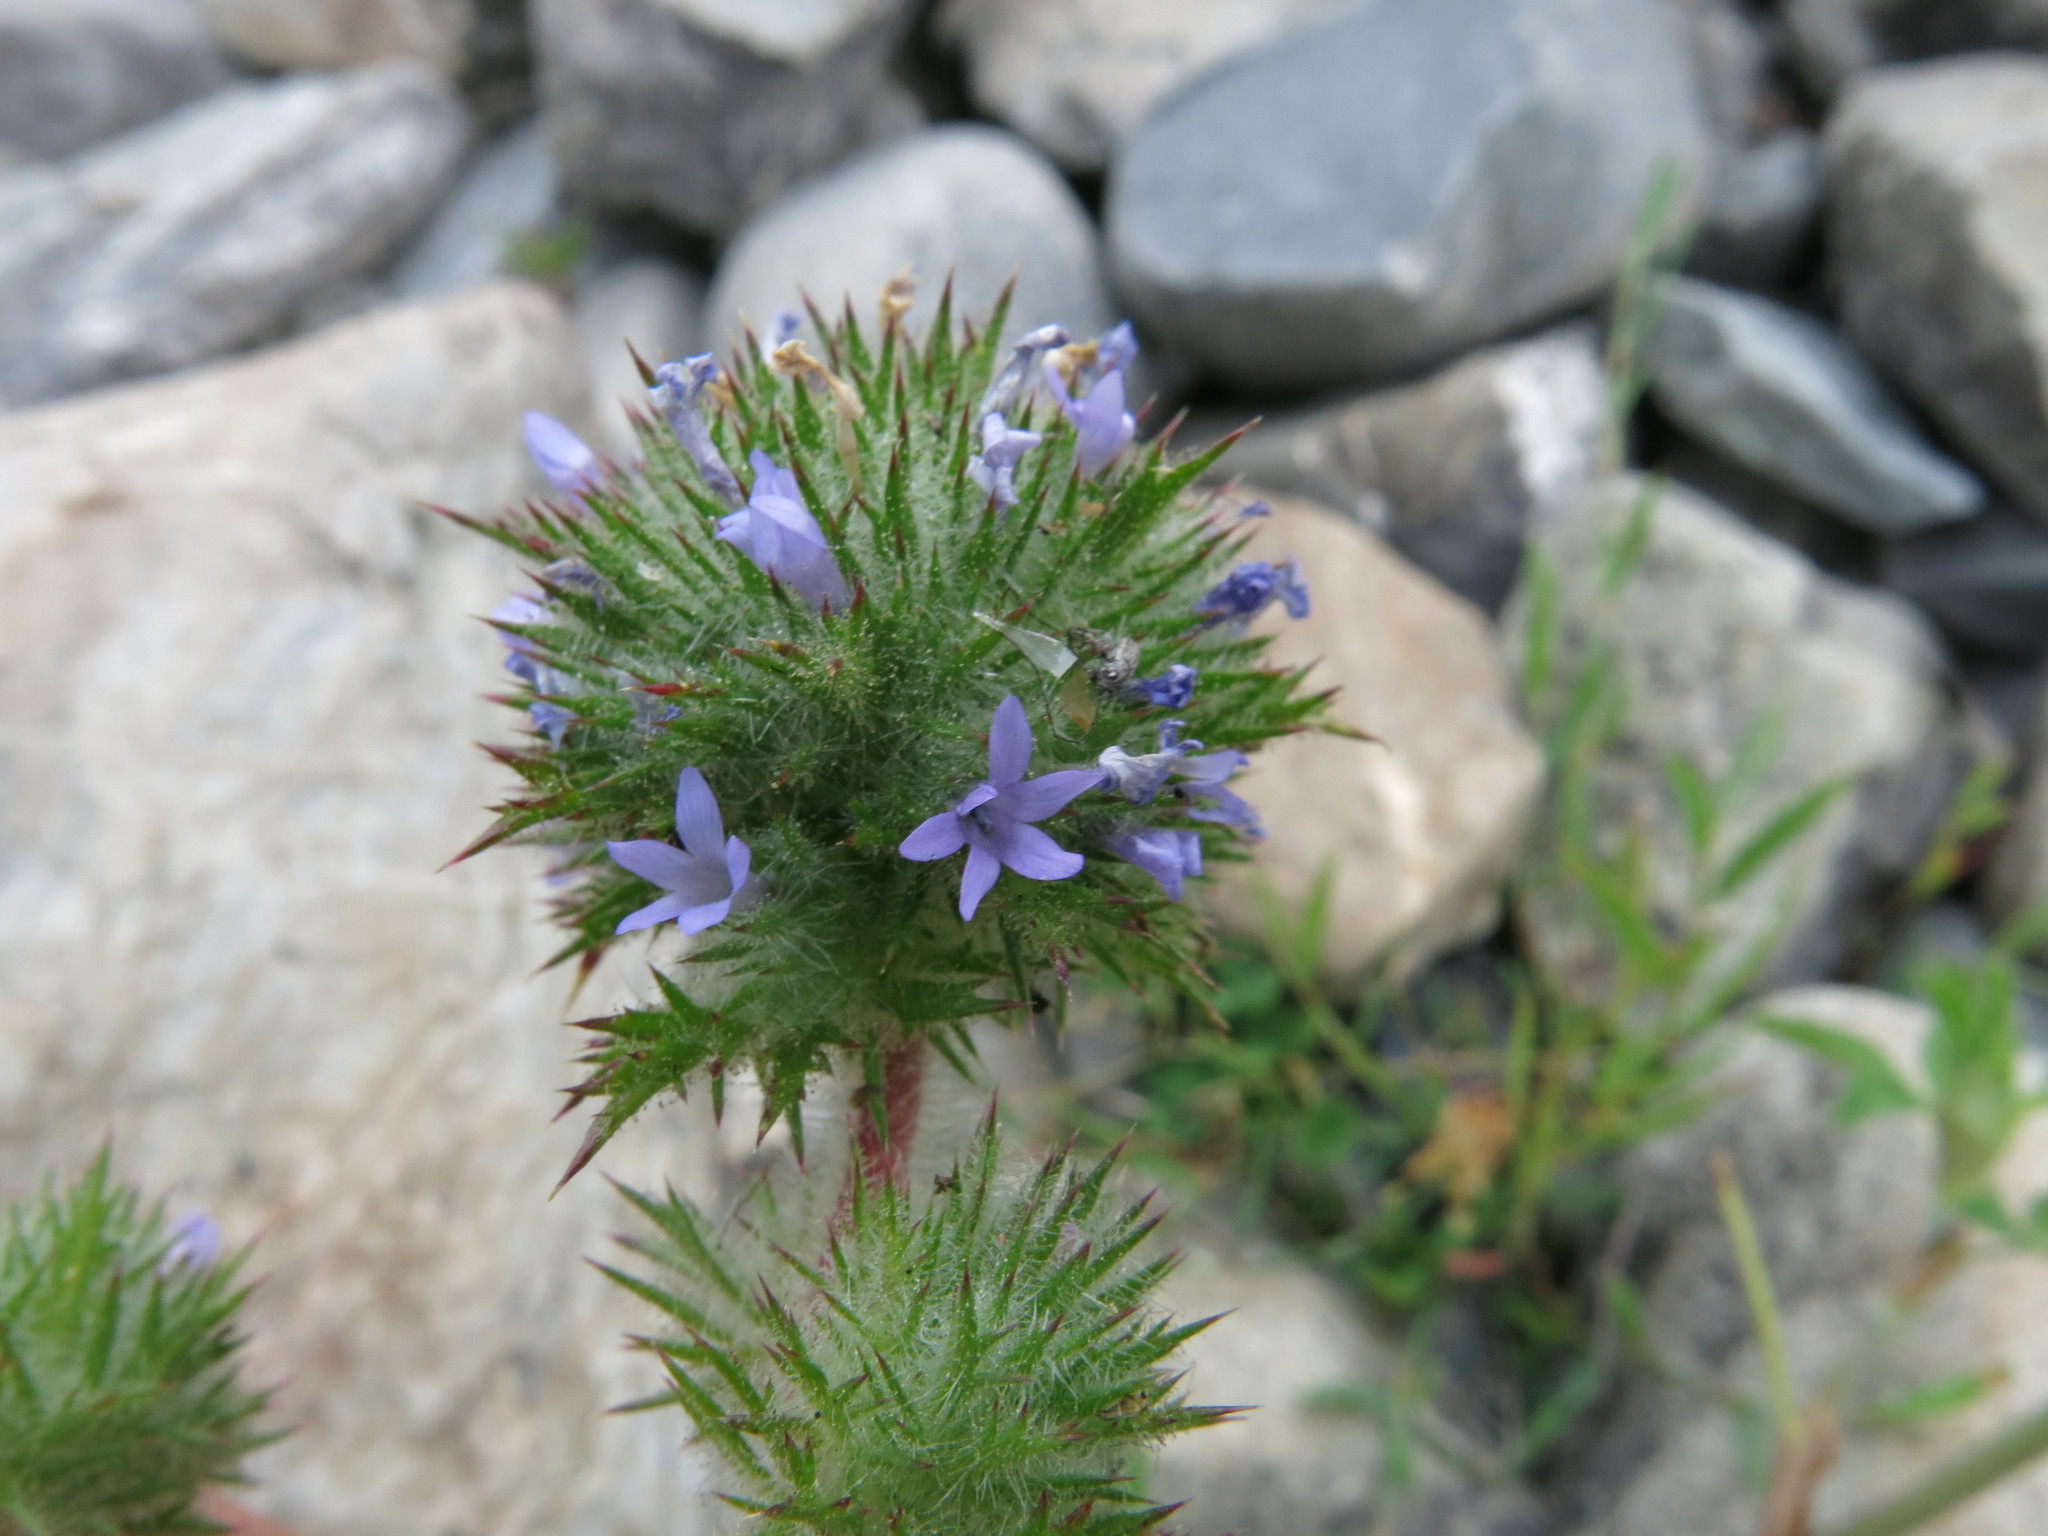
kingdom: Plantae
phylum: Tracheophyta
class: Magnoliopsida
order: Ericales
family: Polemoniaceae
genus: Navarretia
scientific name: Navarretia squarrosa
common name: Skunkweed
